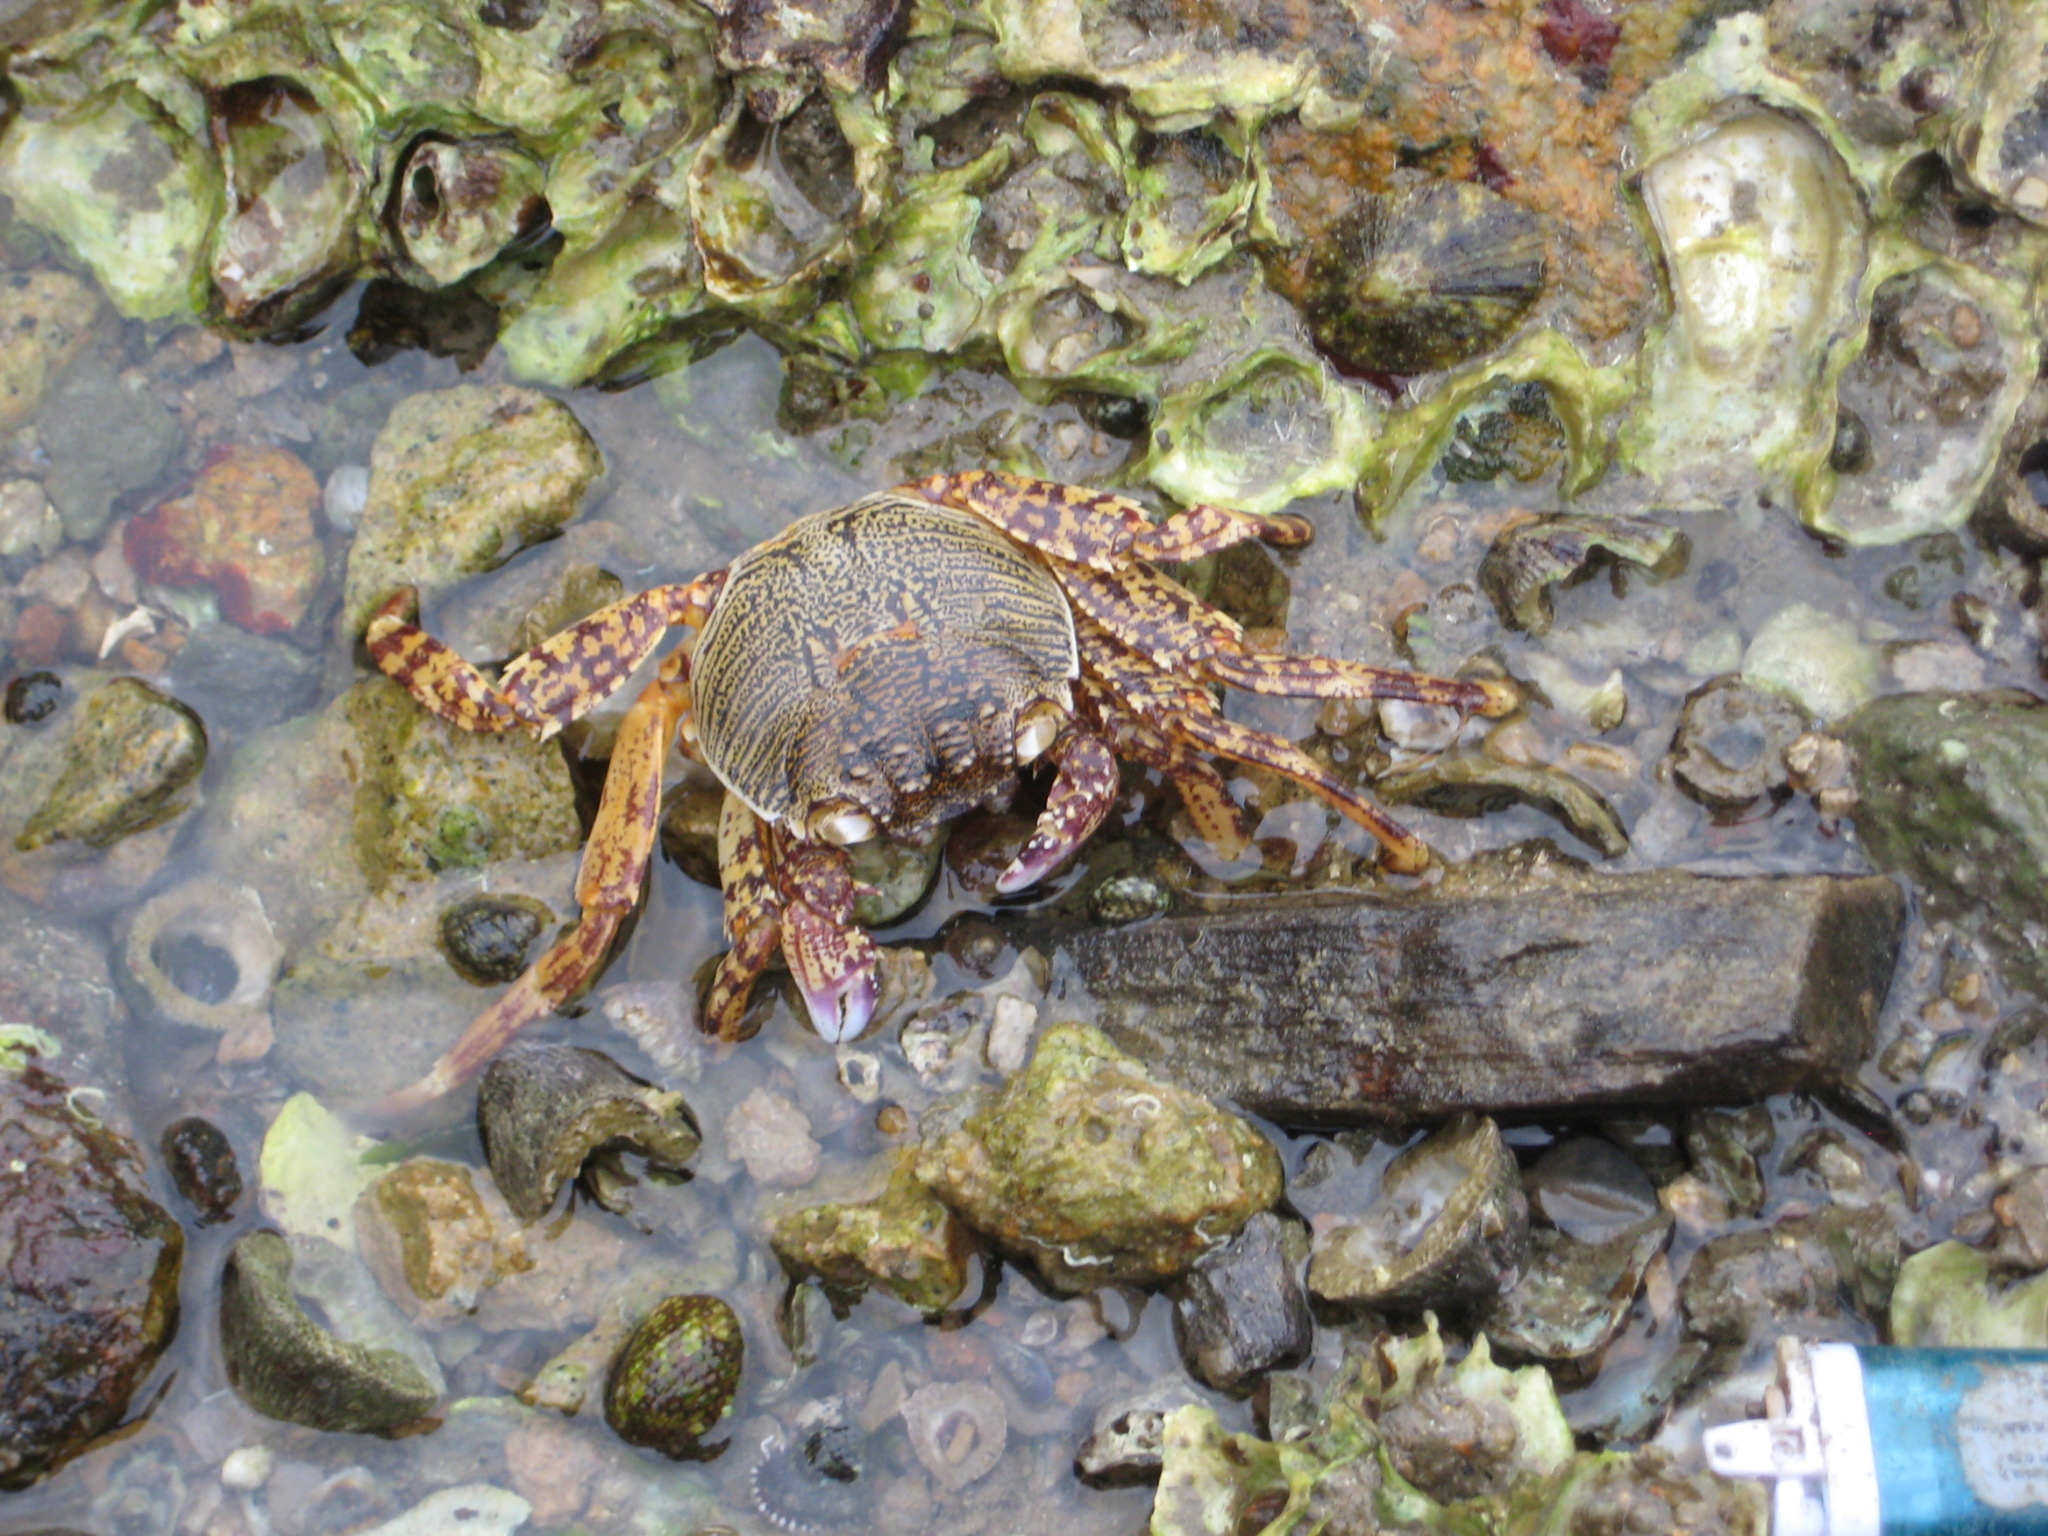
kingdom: Animalia
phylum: Arthropoda
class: Malacostraca
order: Decapoda
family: Grapsidae
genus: Grapsus
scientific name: Grapsus albolineatus
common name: Mottled lightfoot crab
